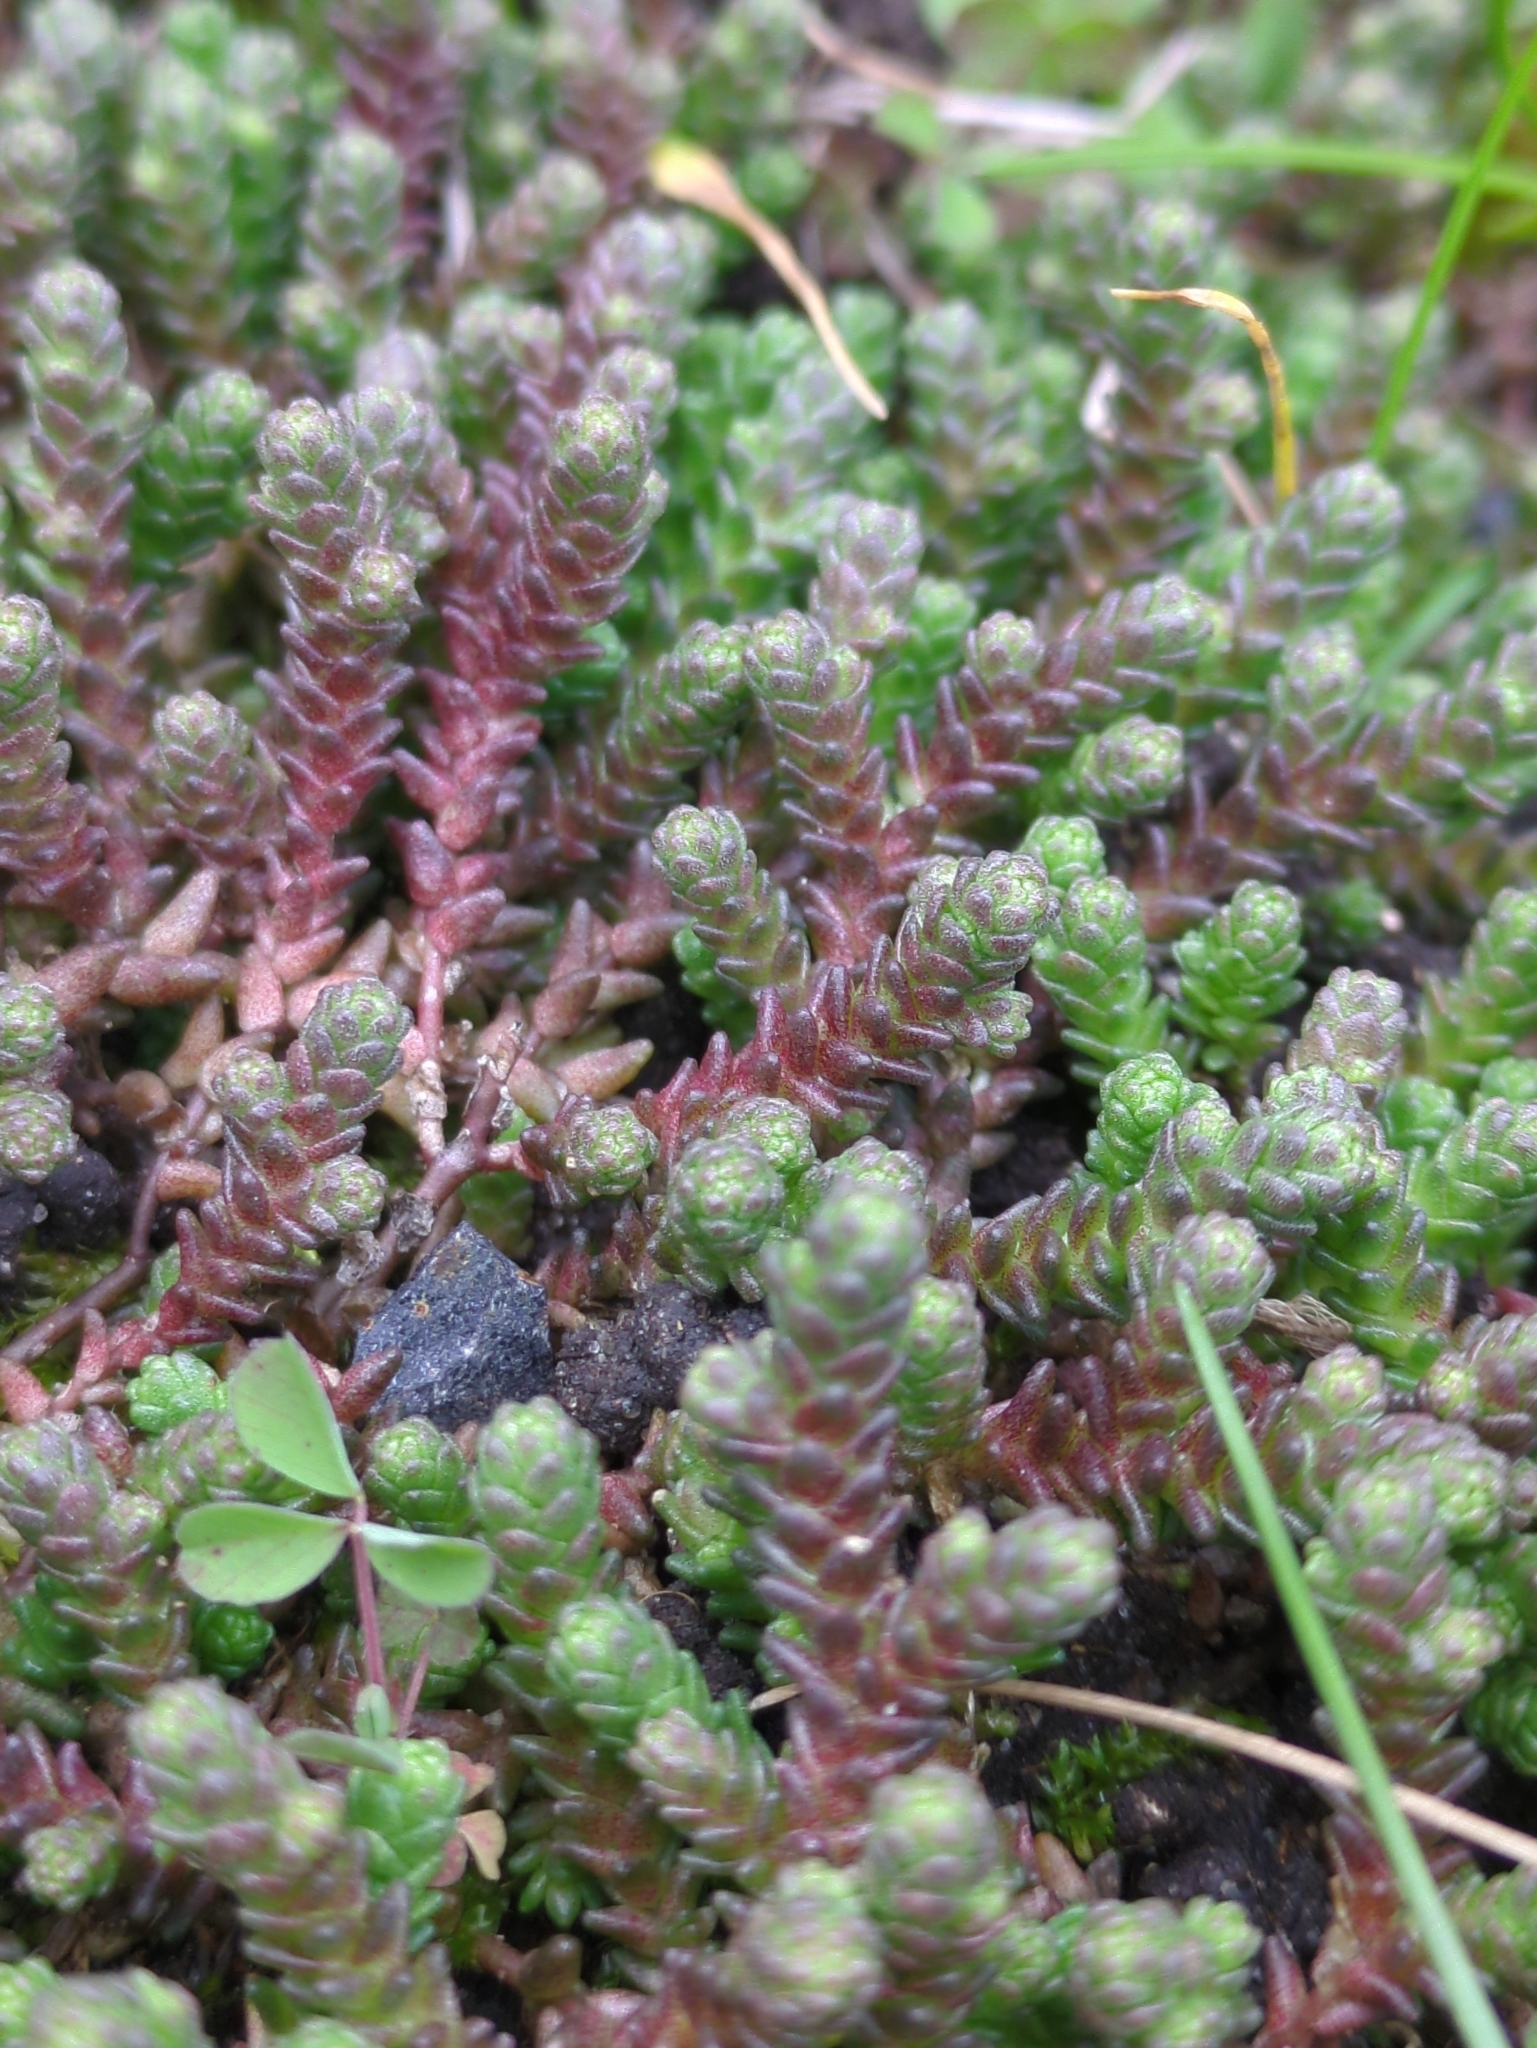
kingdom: Plantae
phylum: Tracheophyta
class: Magnoliopsida
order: Saxifragales
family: Crassulaceae
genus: Sedum
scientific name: Sedum acre
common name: Biting stonecrop
